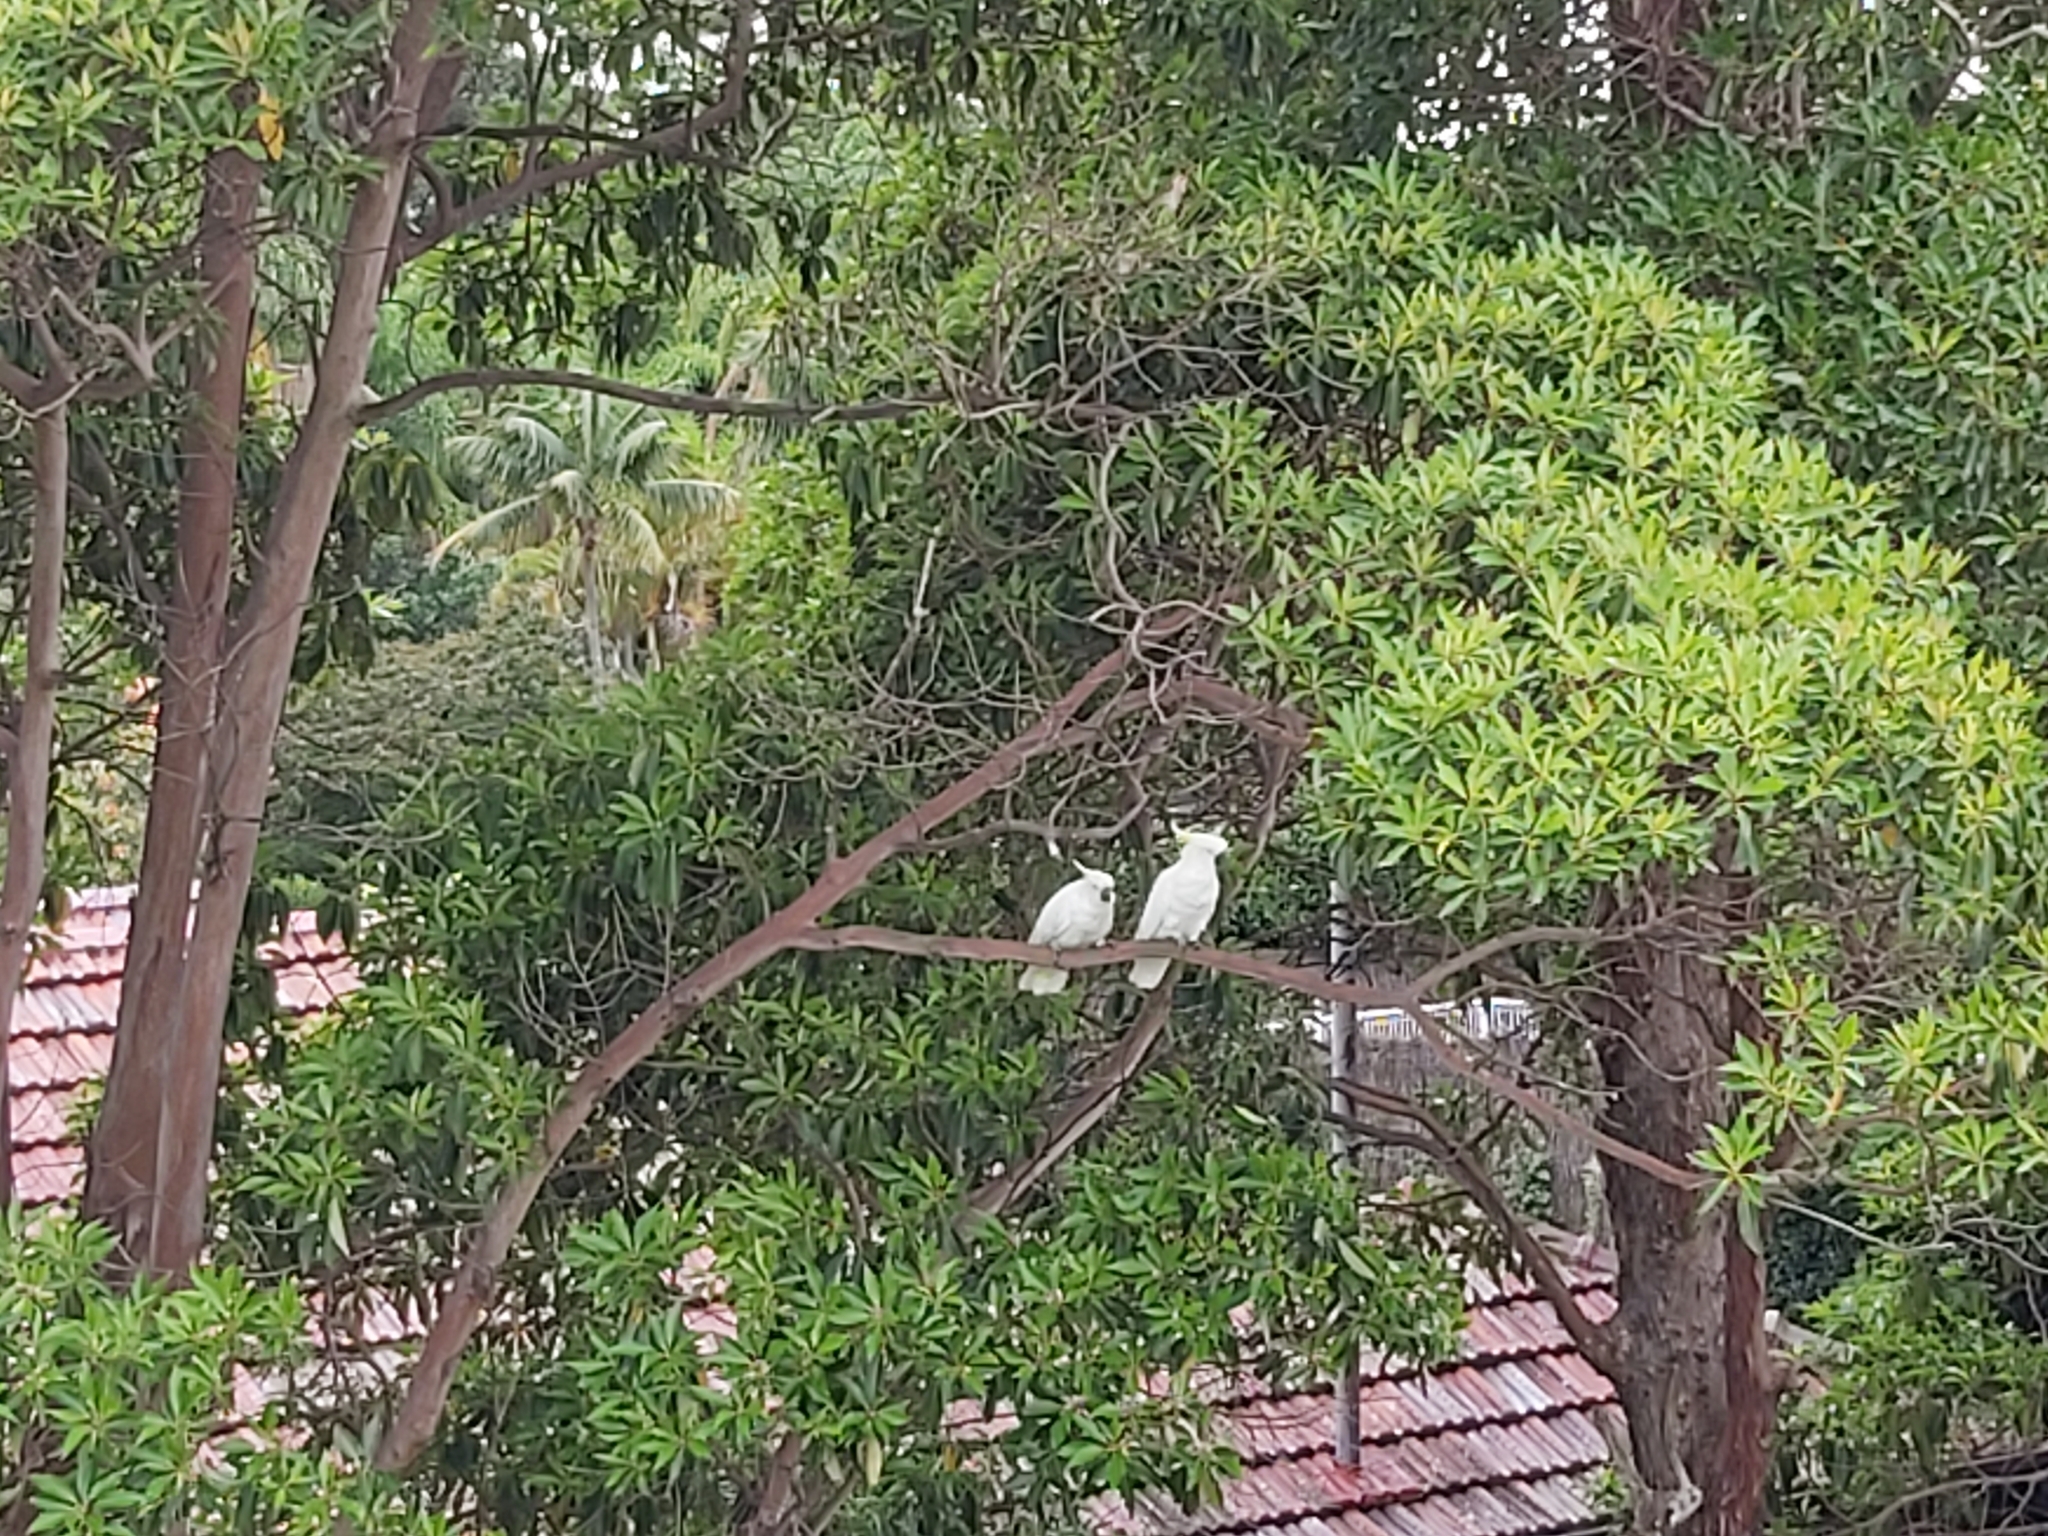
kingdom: Animalia
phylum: Chordata
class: Aves
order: Psittaciformes
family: Psittacidae
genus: Cacatua
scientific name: Cacatua galerita
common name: Sulphur-crested cockatoo
